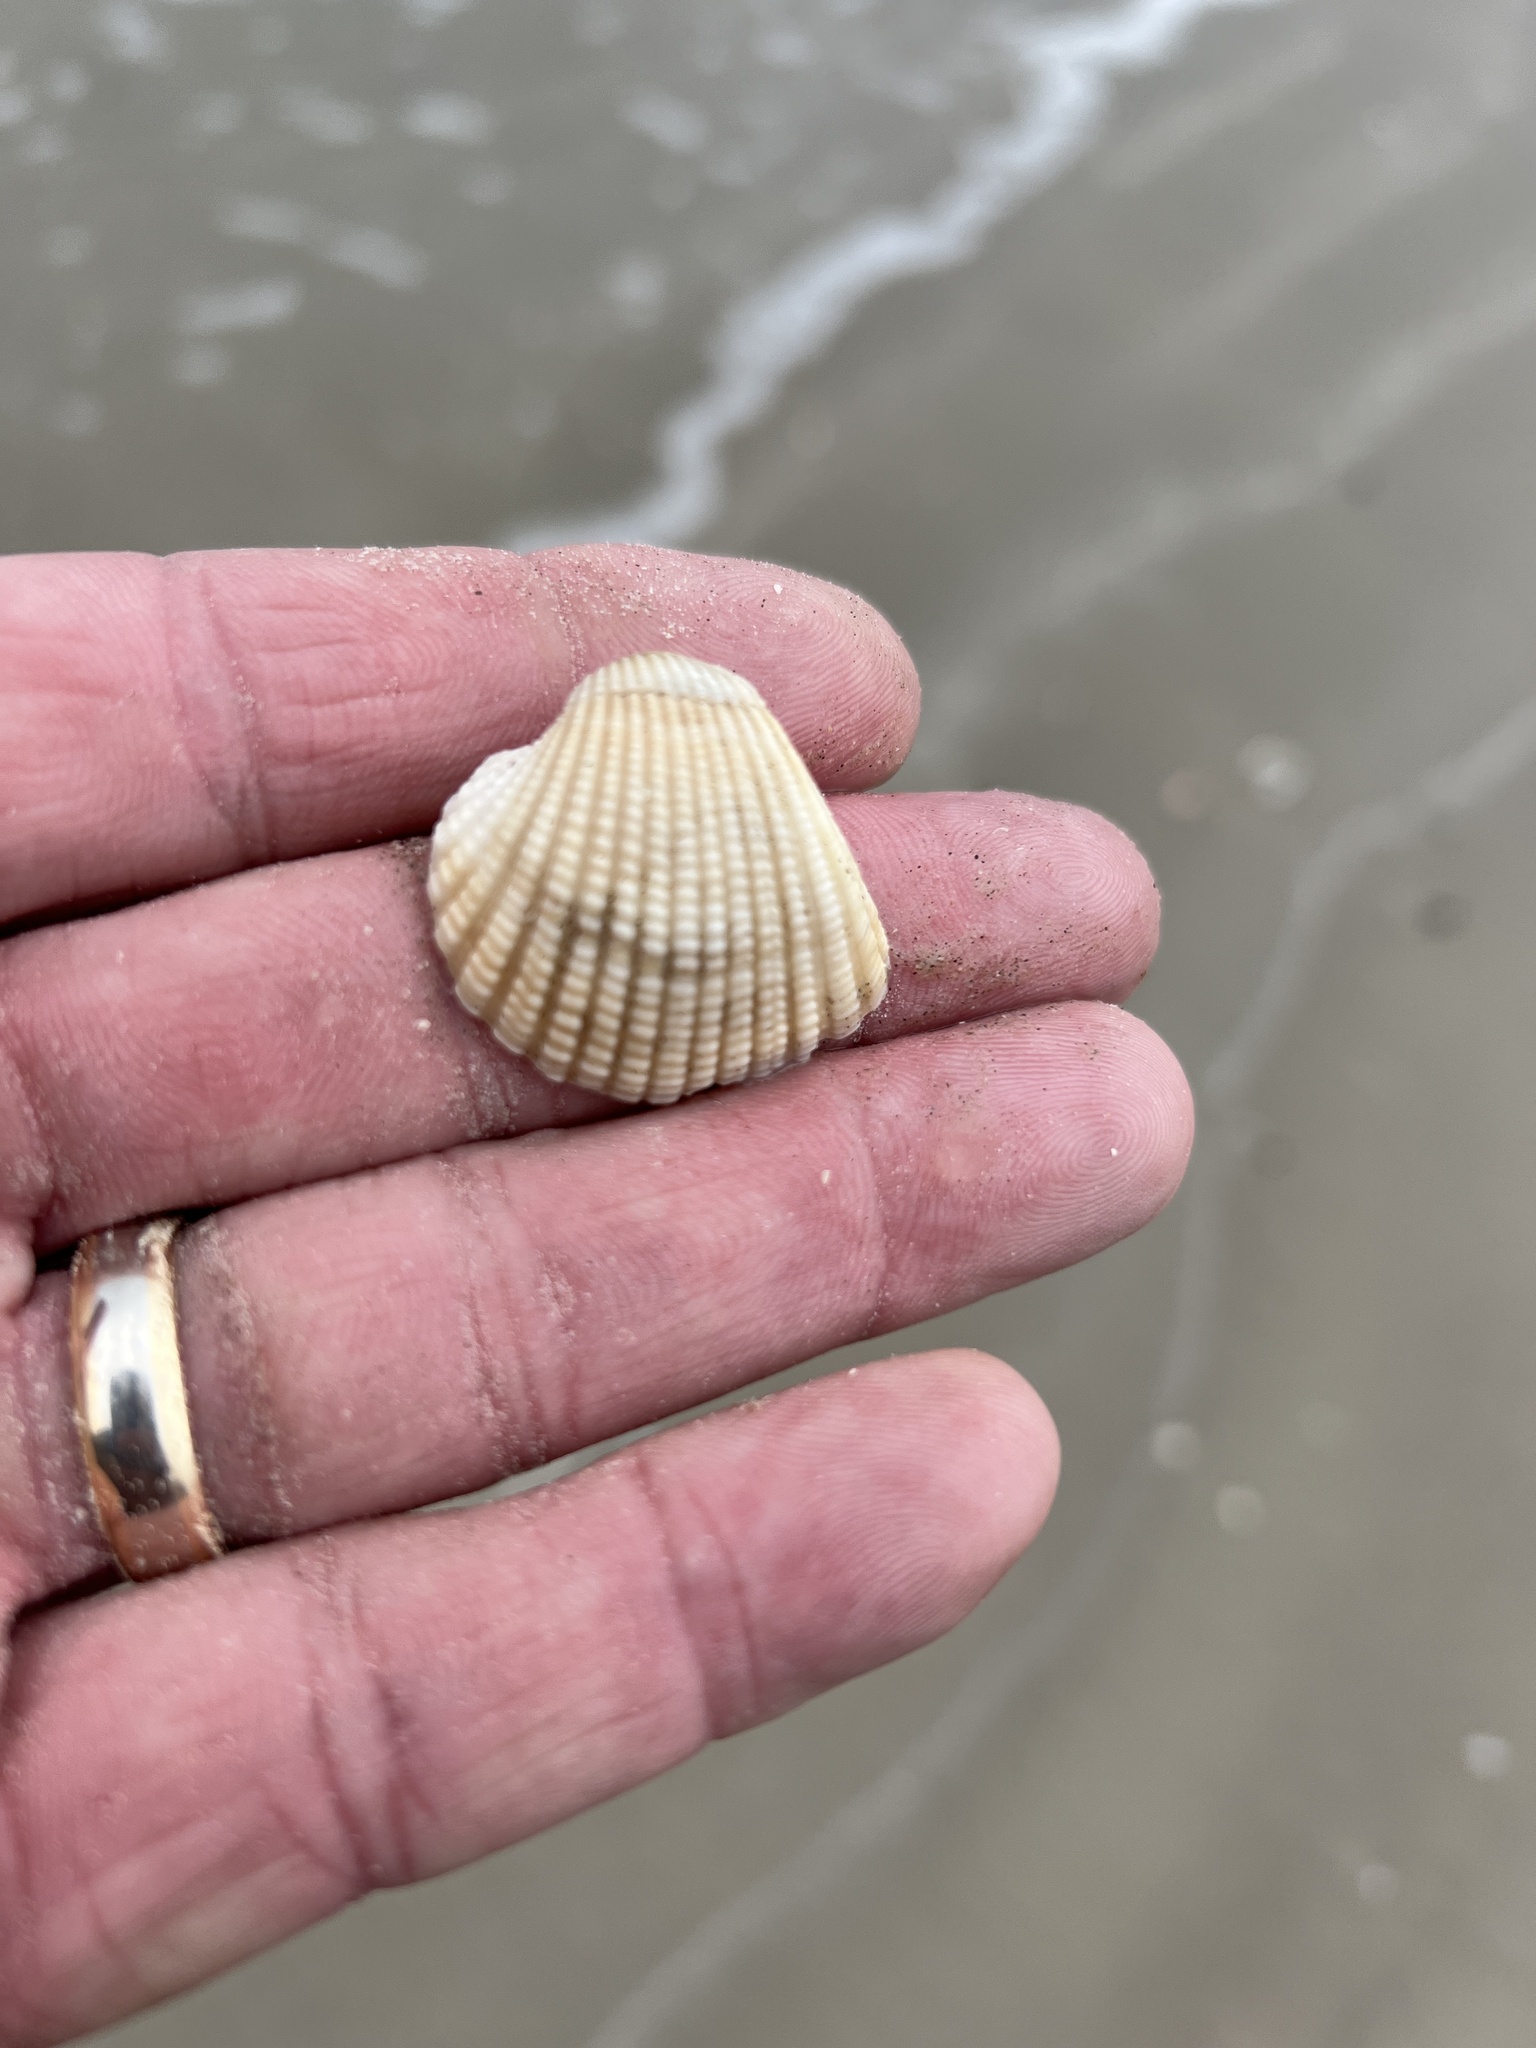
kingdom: Animalia
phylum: Mollusca
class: Bivalvia
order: Arcida
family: Arcidae
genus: Anadara
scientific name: Anadara brasiliana
